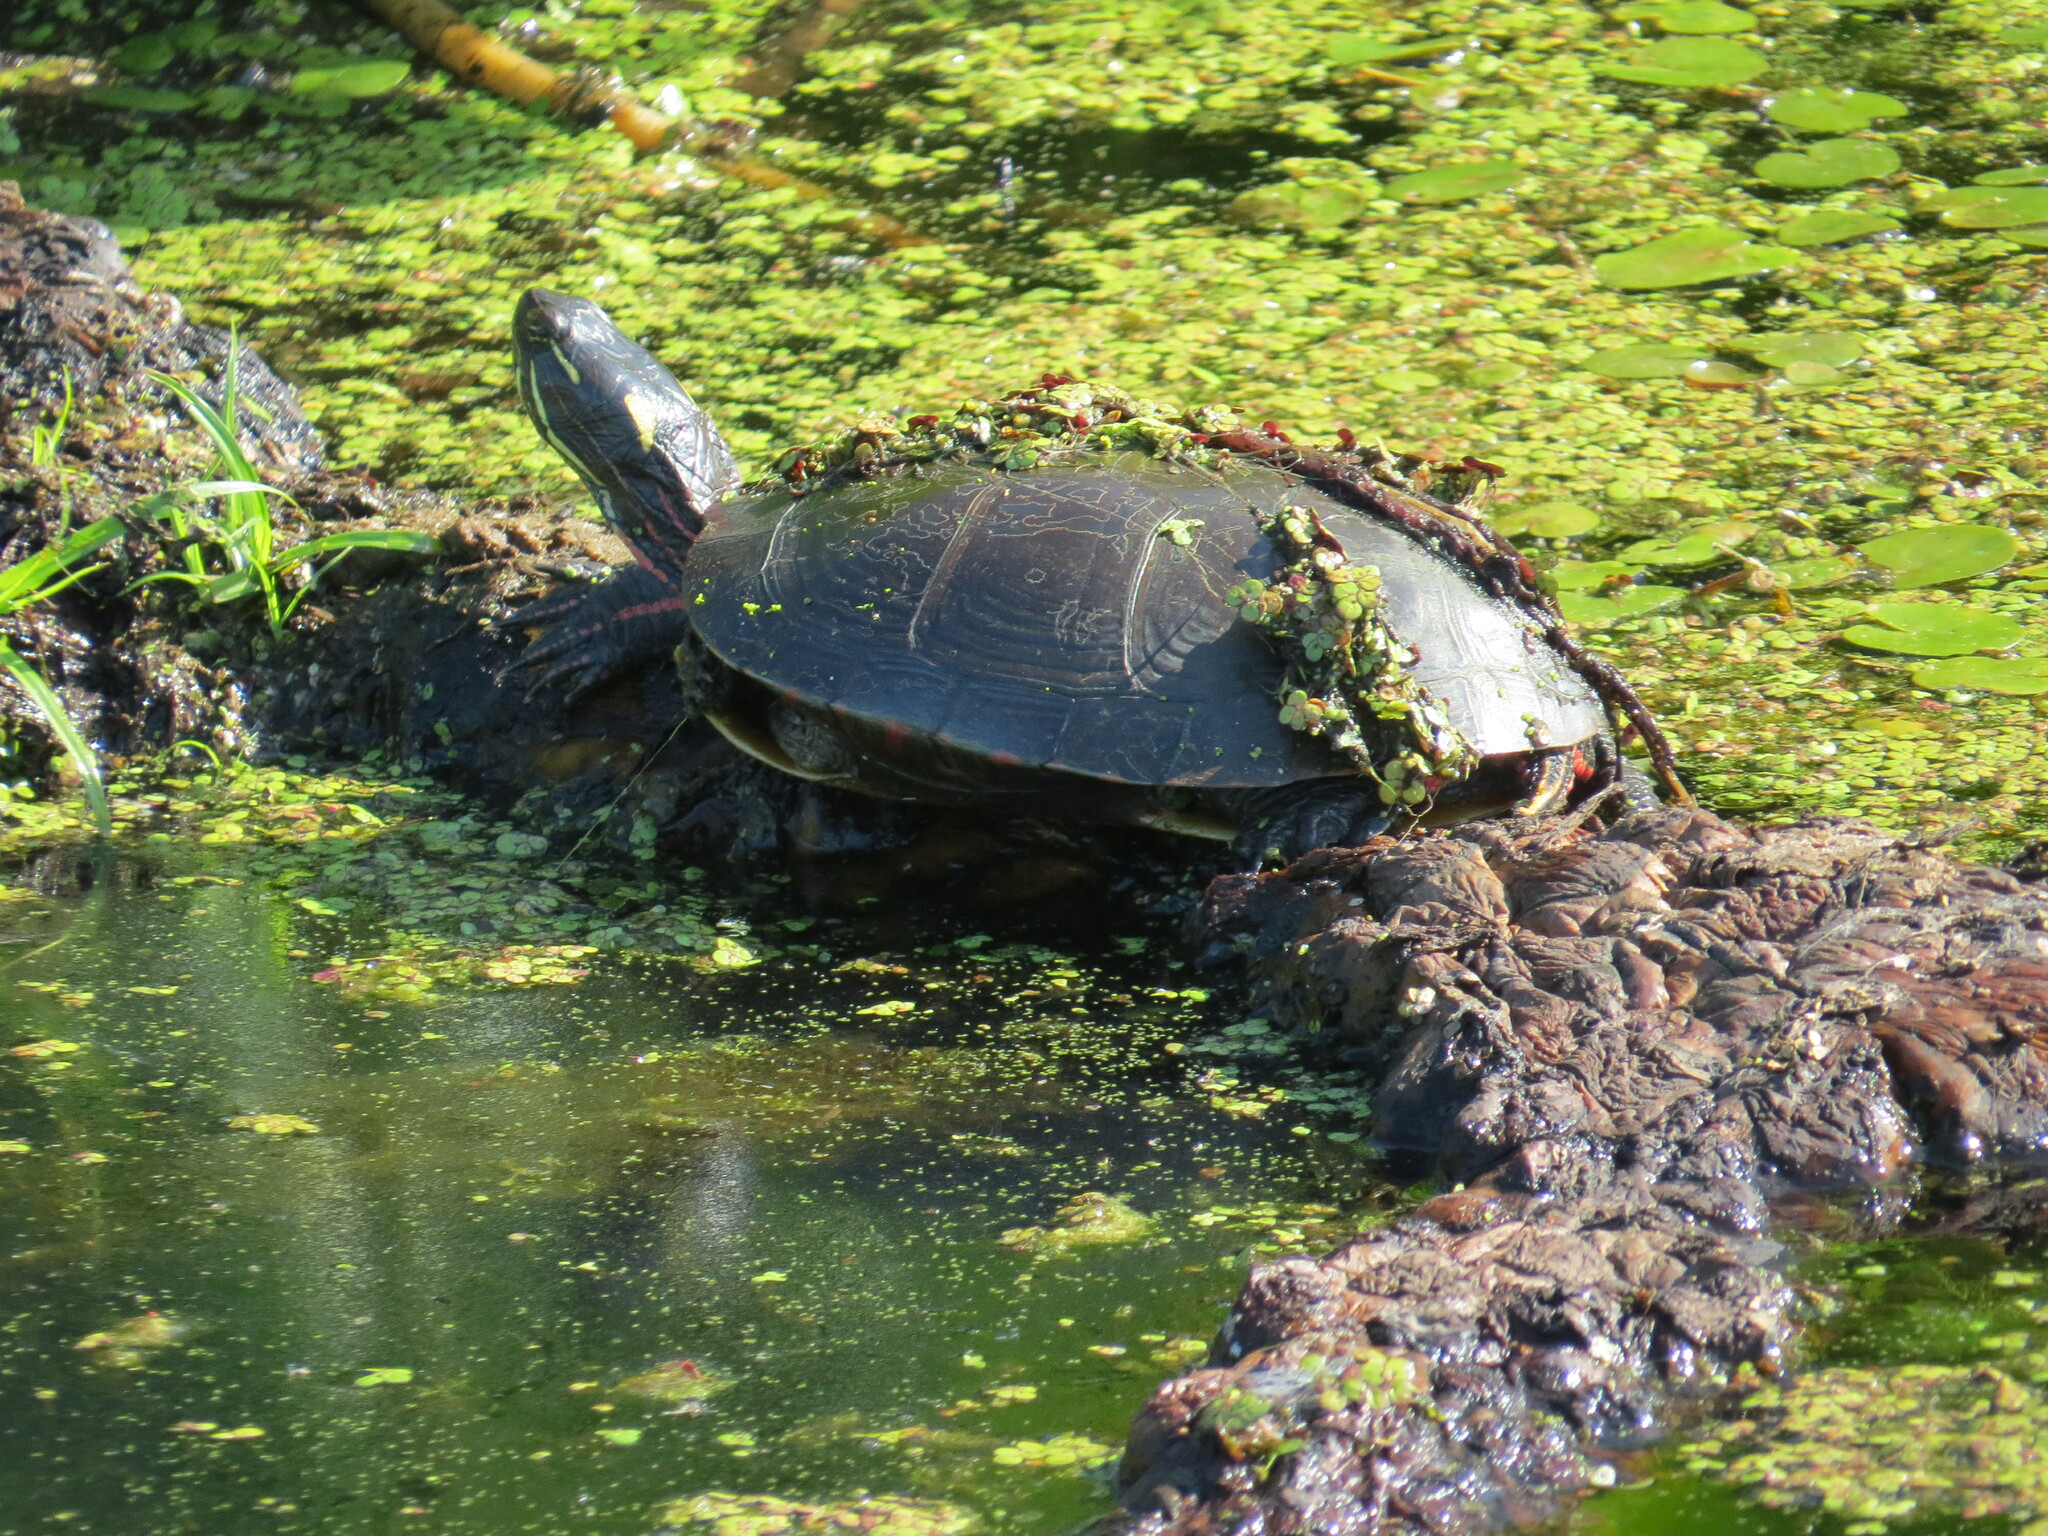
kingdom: Animalia
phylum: Chordata
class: Testudines
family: Emydidae
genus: Chrysemys
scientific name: Chrysemys picta
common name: Painted turtle
